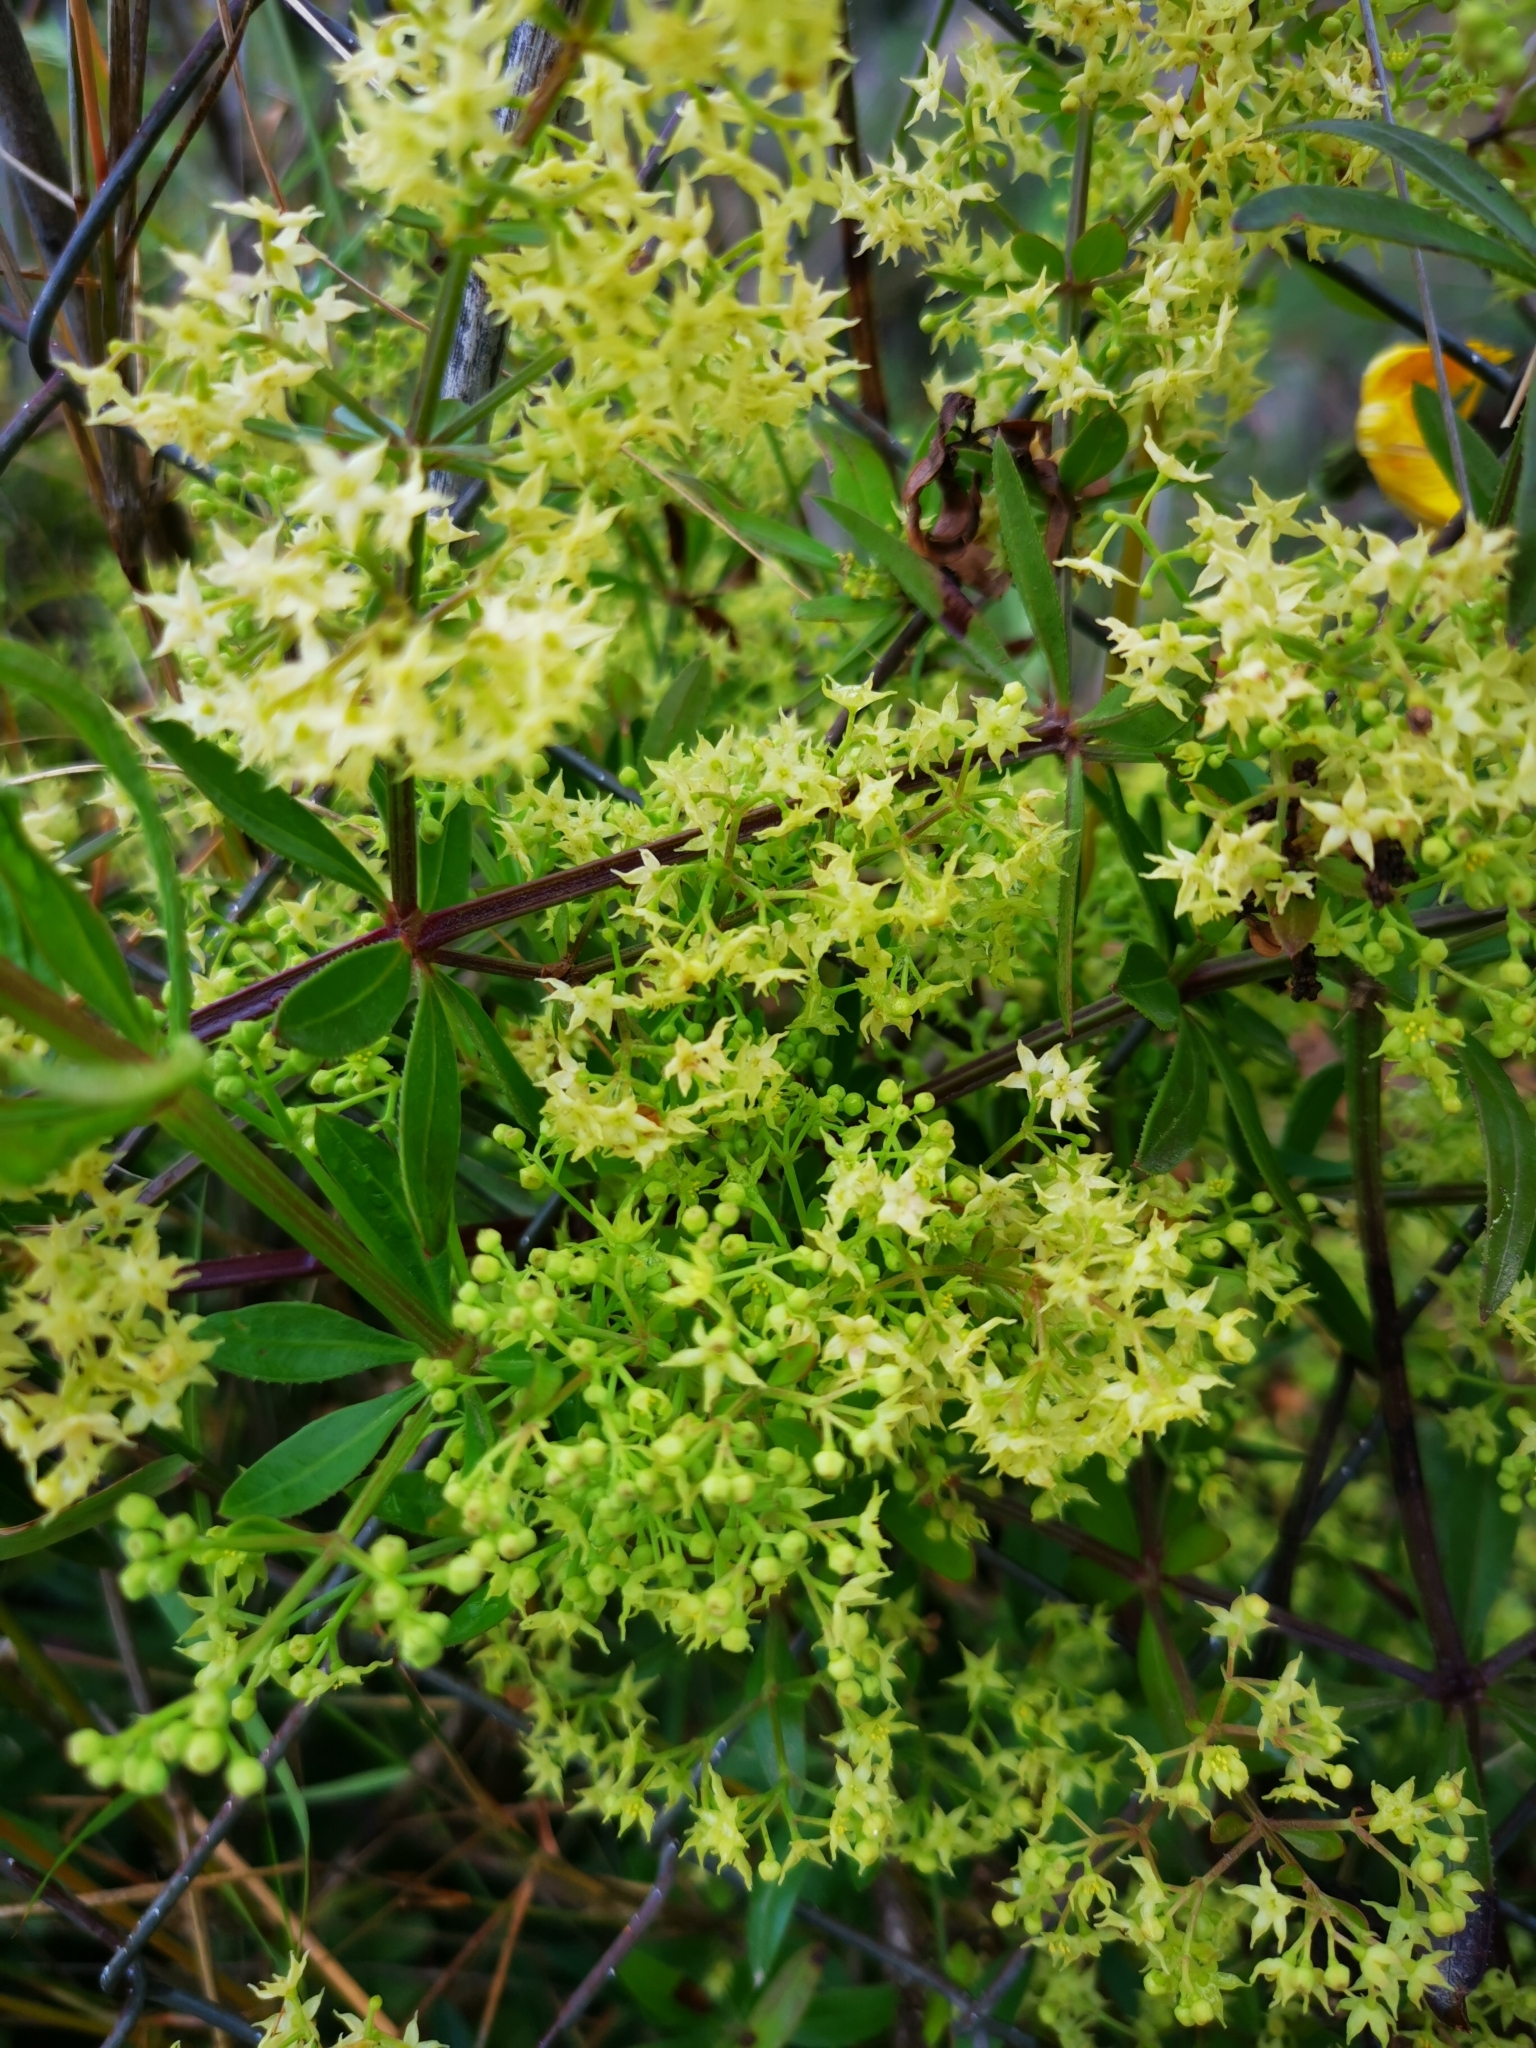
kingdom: Plantae
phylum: Tracheophyta
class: Magnoliopsida
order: Gentianales
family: Rubiaceae
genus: Rubia
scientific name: Rubia peregrina
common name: Wild madder
